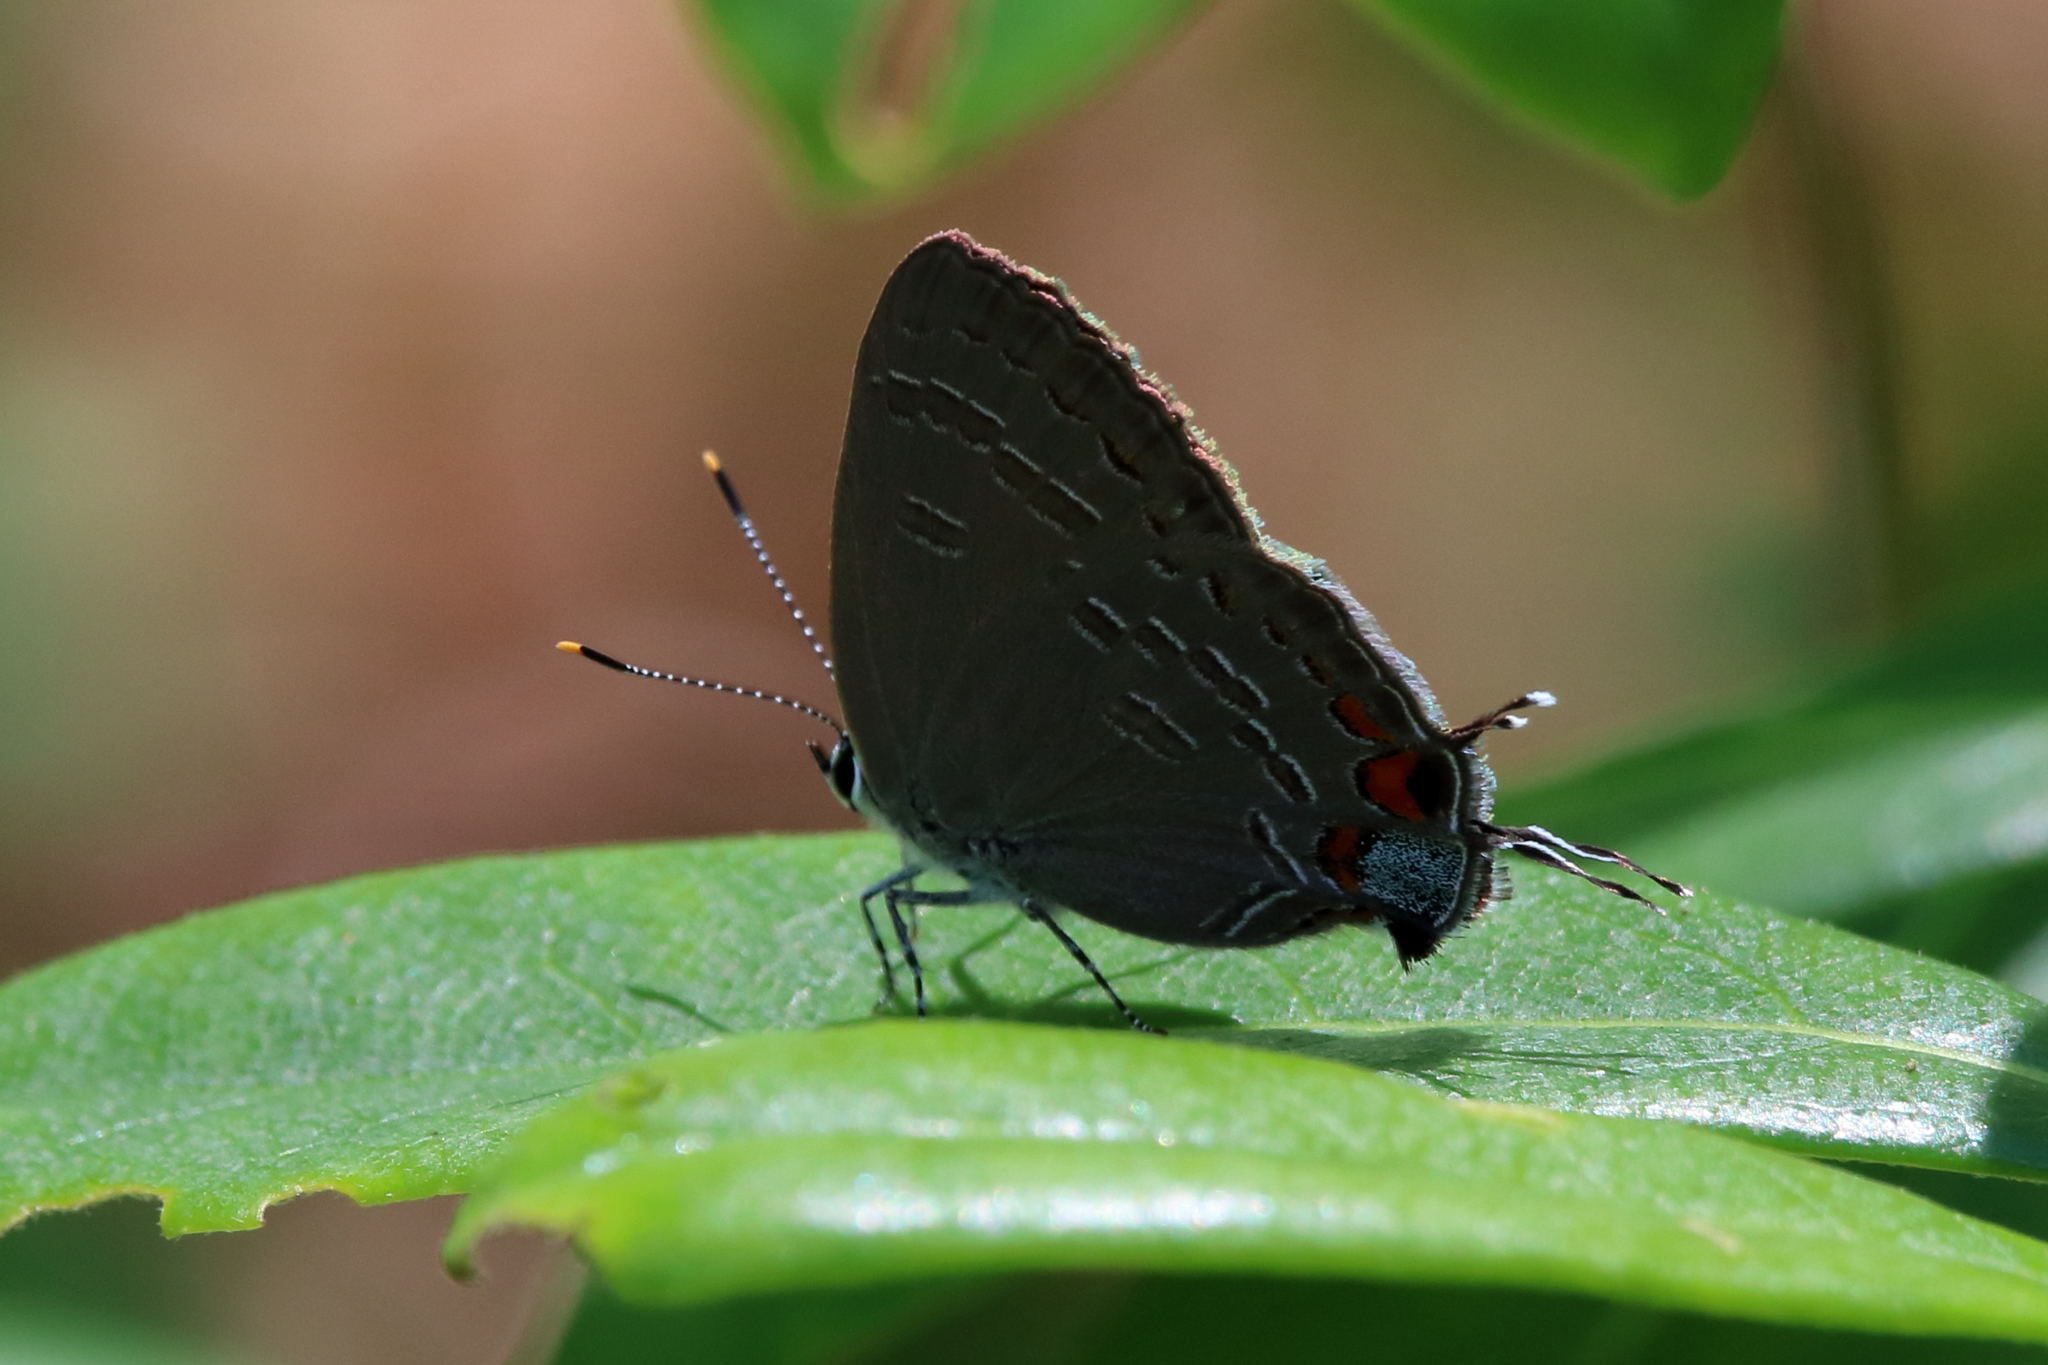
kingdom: Animalia
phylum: Arthropoda
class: Insecta
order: Lepidoptera
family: Lycaenidae
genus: Strymon
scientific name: Strymon kingi
